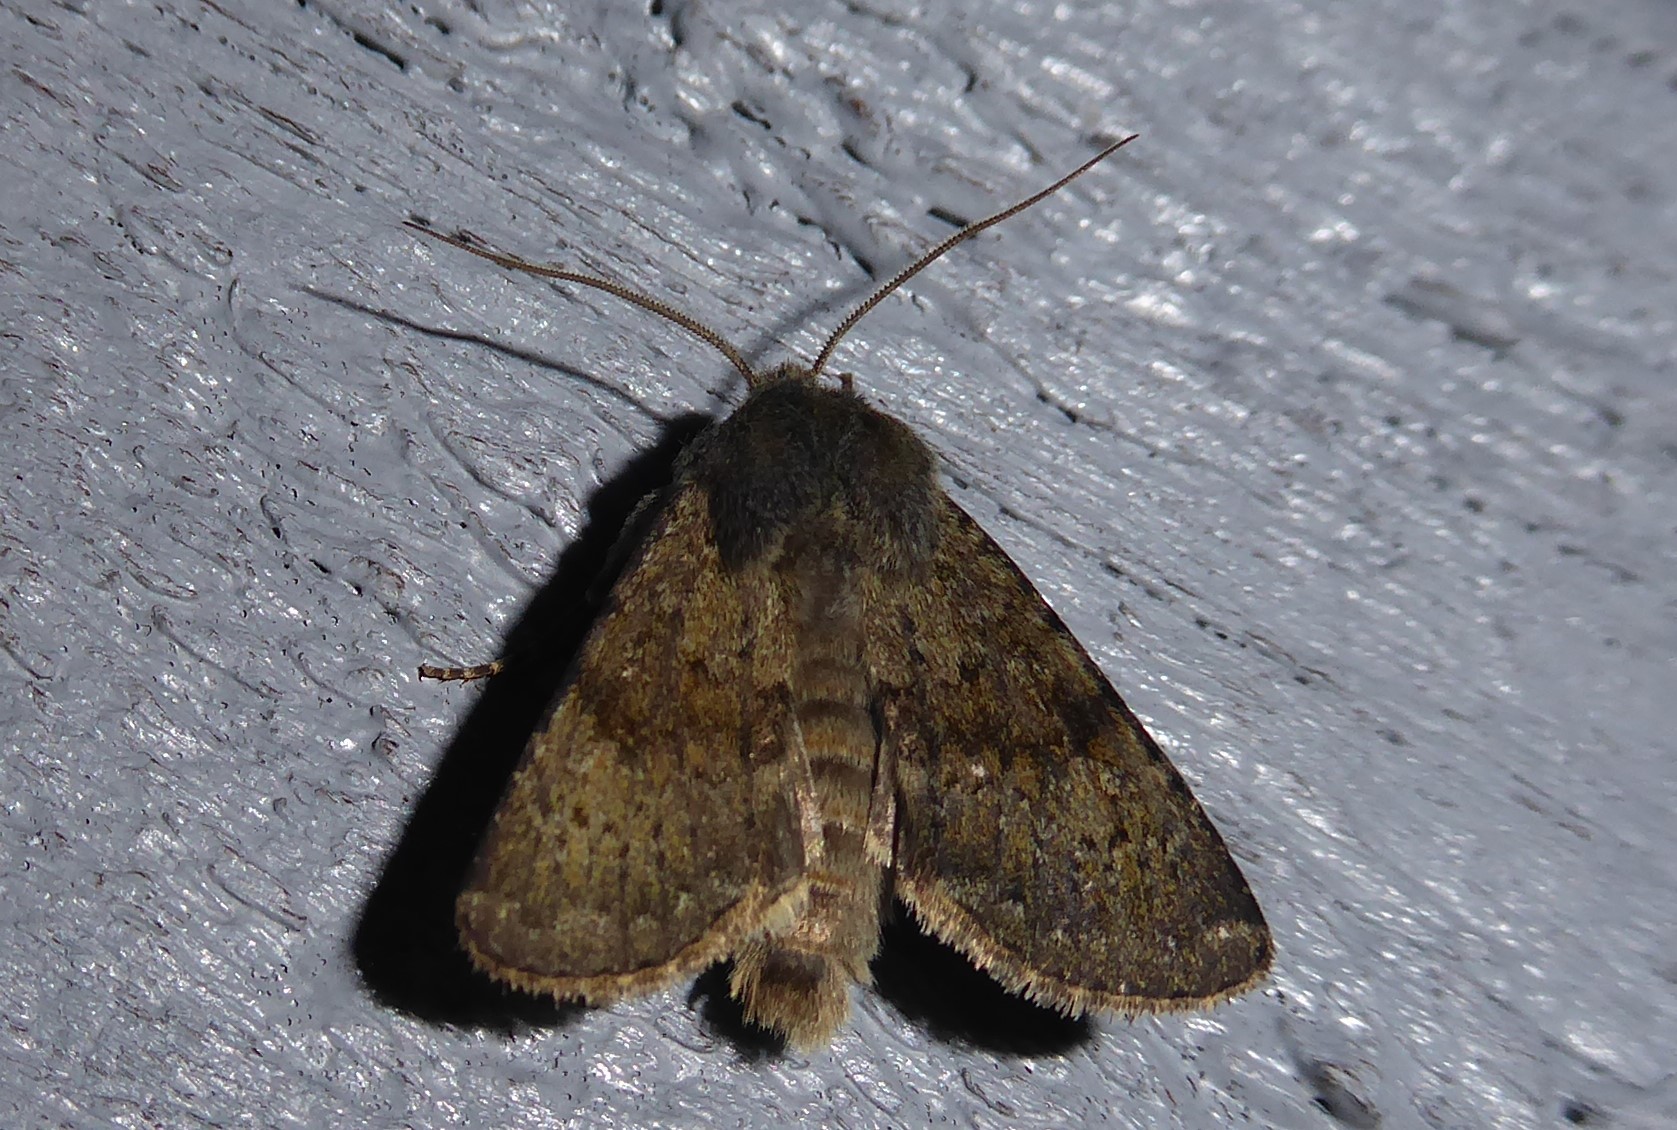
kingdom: Animalia
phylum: Arthropoda
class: Insecta
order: Lepidoptera
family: Noctuidae
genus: Ichneutica
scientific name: Ichneutica moderata
